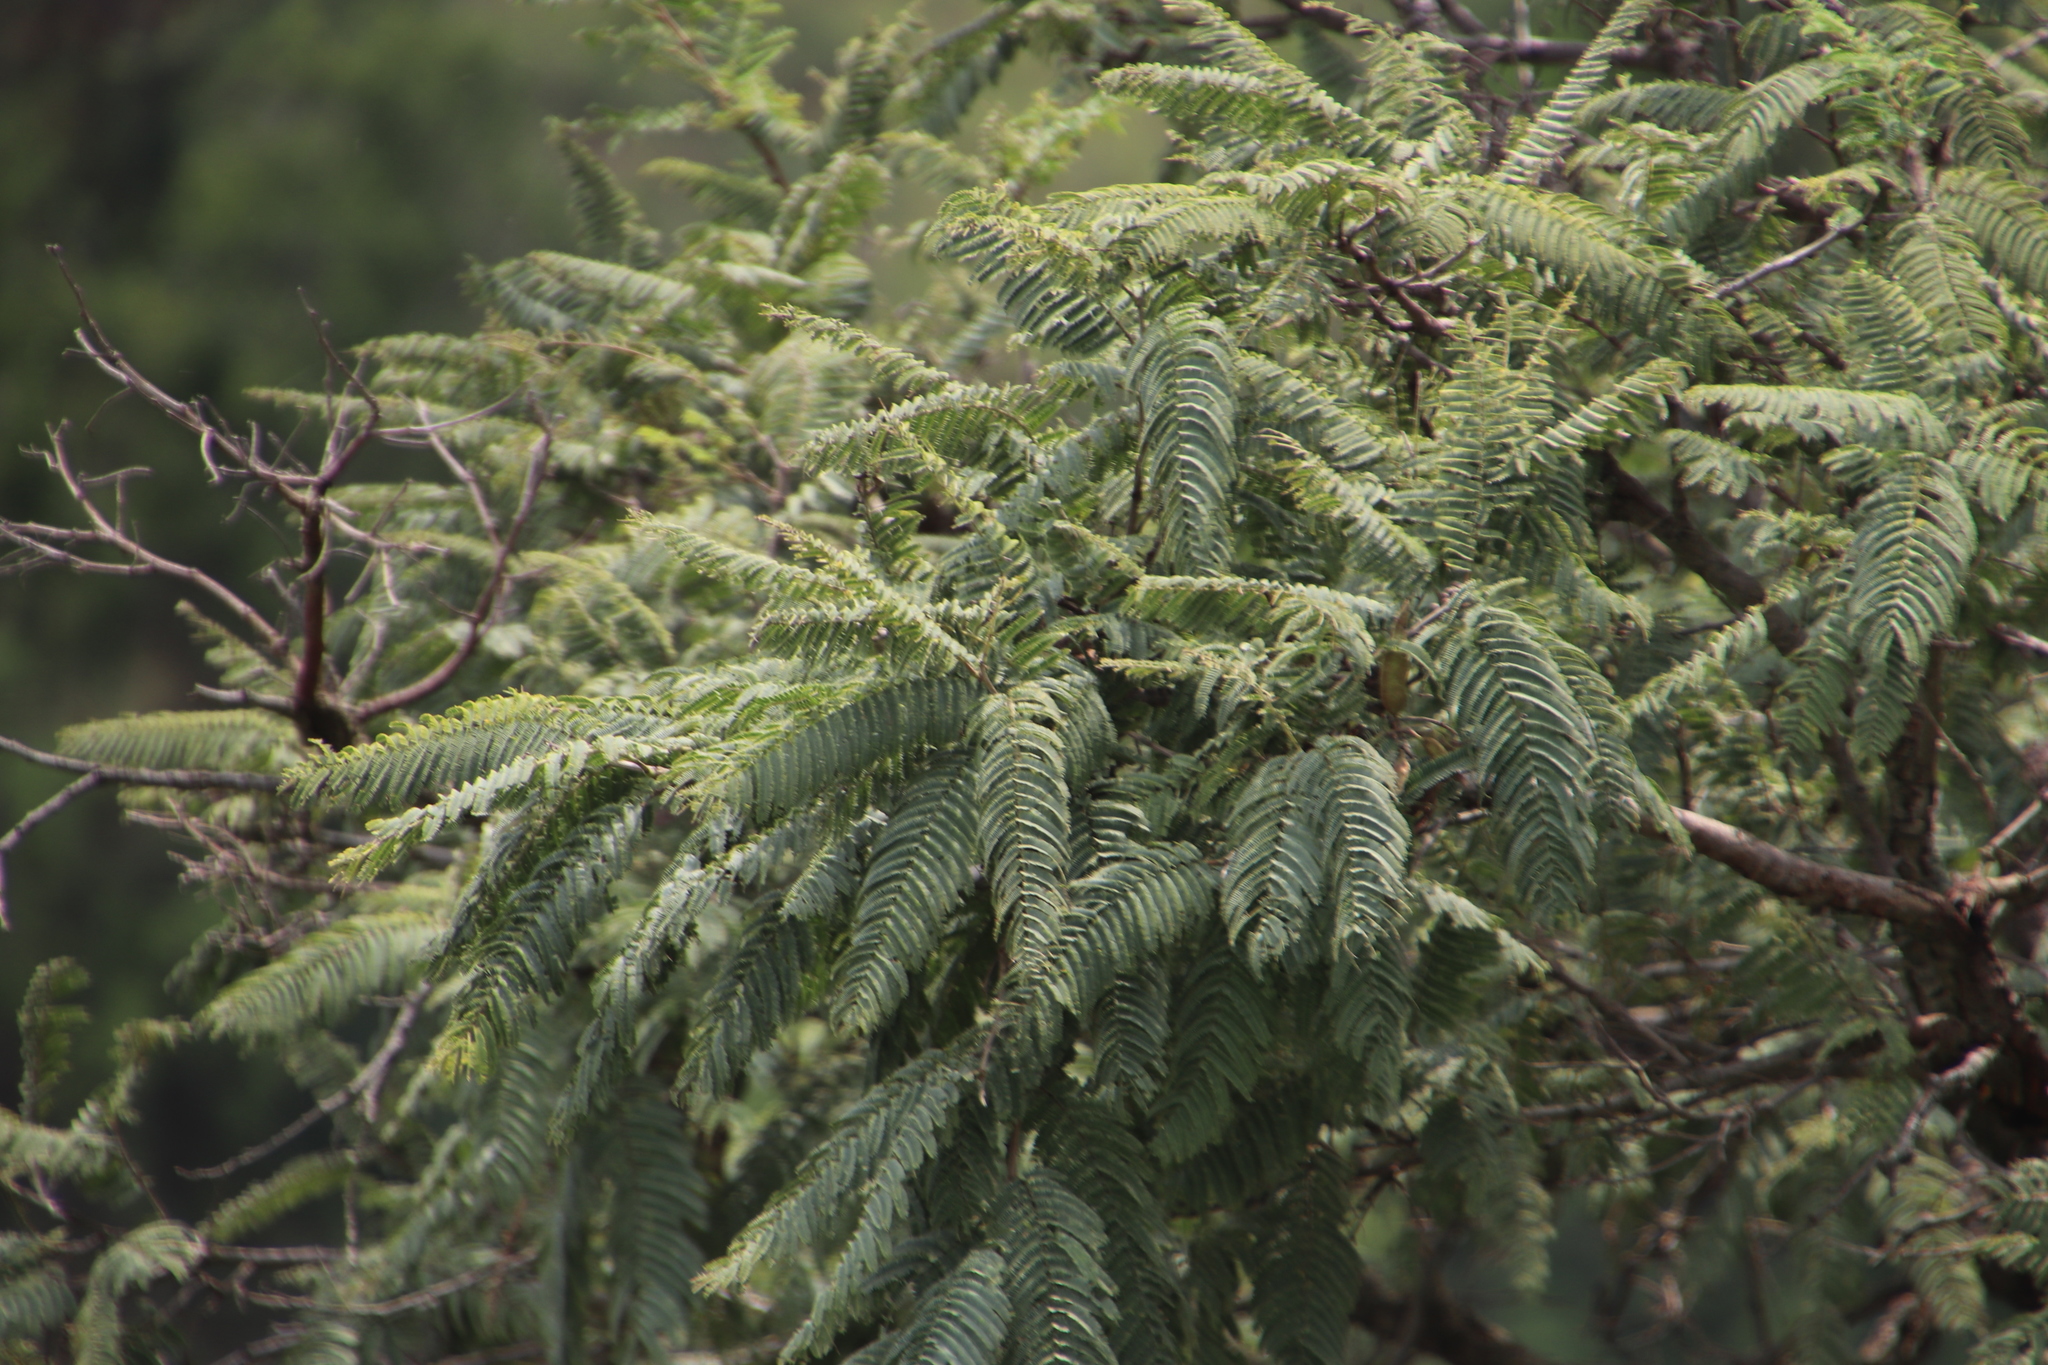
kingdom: Plantae
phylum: Tracheophyta
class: Magnoliopsida
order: Fabales
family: Fabaceae
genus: Senegalia
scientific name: Senegalia caffra
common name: Cat thorn
